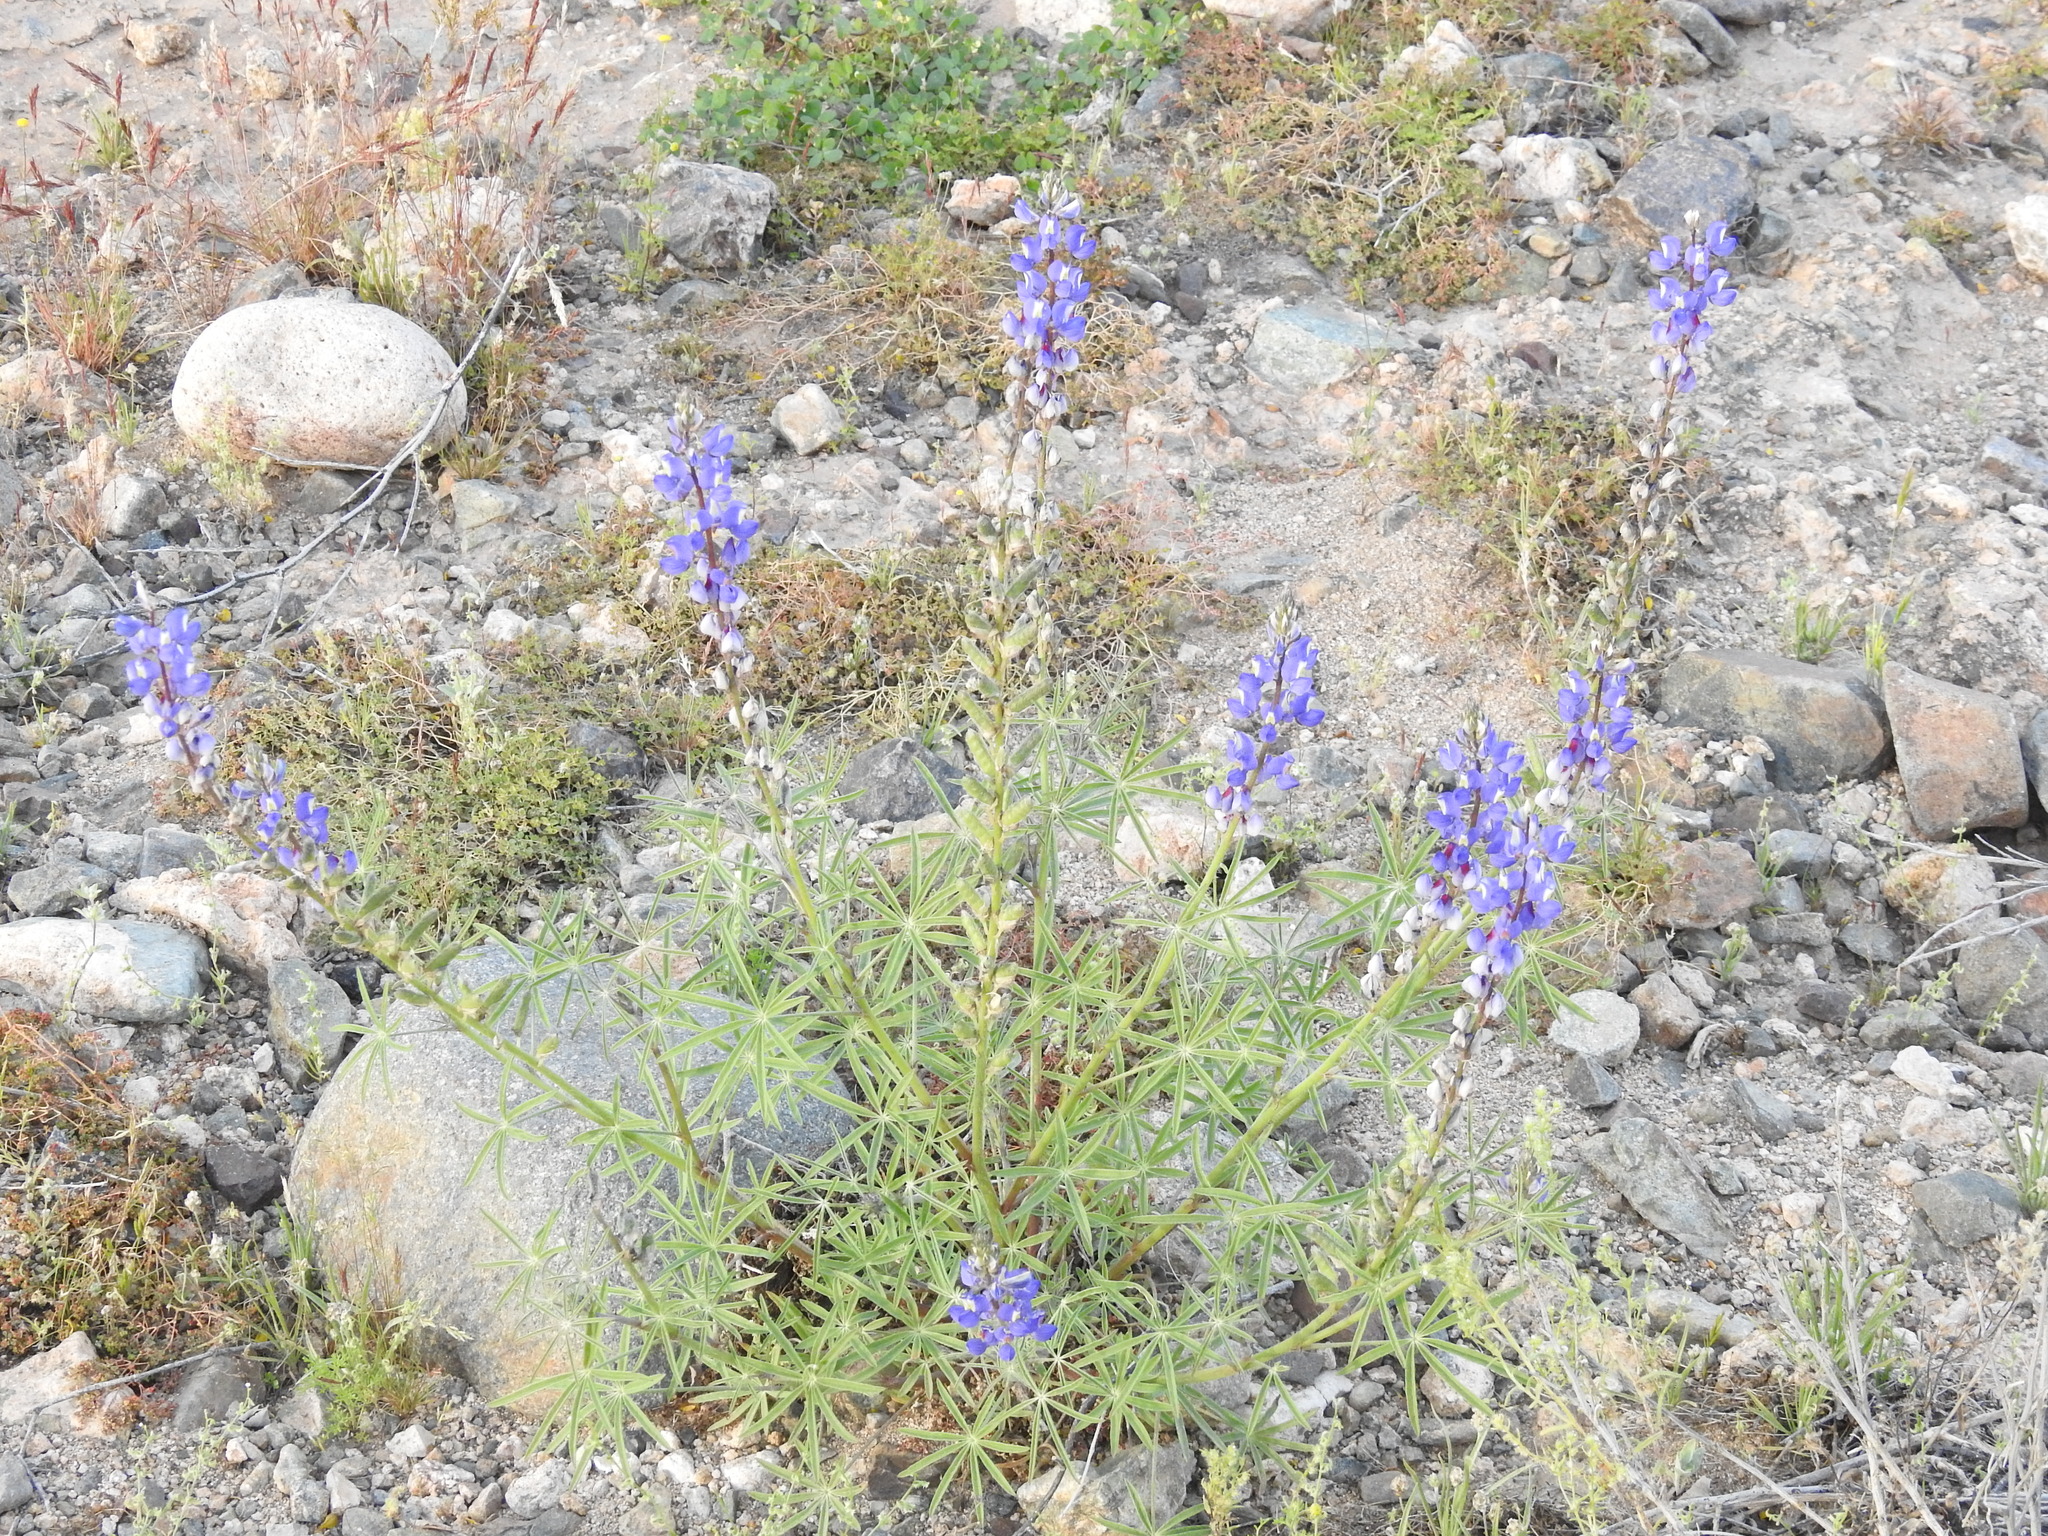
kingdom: Plantae
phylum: Tracheophyta
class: Magnoliopsida
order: Fabales
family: Fabaceae
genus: Lupinus
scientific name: Lupinus sparsiflorus
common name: Coulter's lupine
